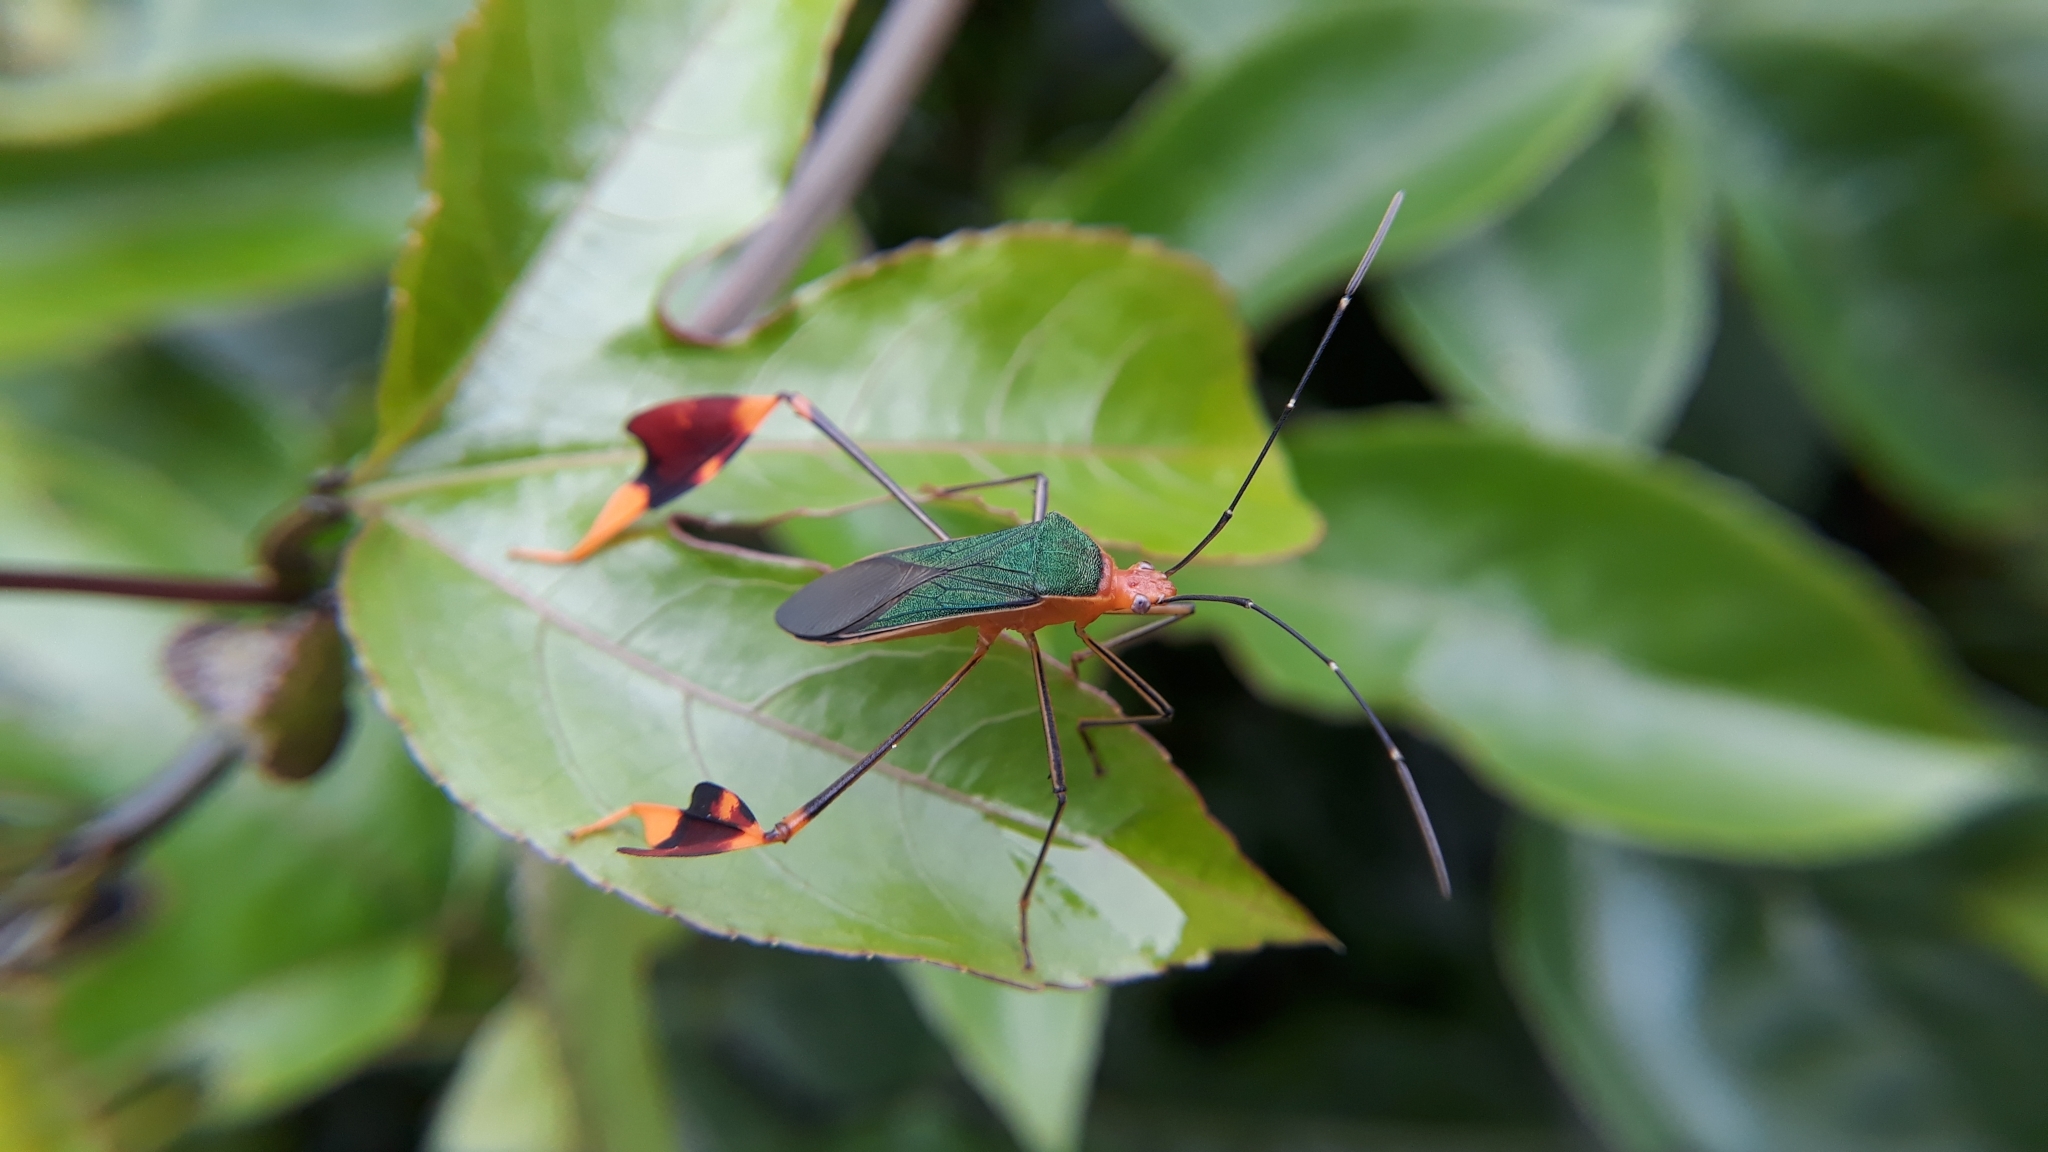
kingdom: Animalia
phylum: Arthropoda
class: Insecta
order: Hemiptera
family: Coreidae
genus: Anisoscelis
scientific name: Anisoscelis foliaceus
